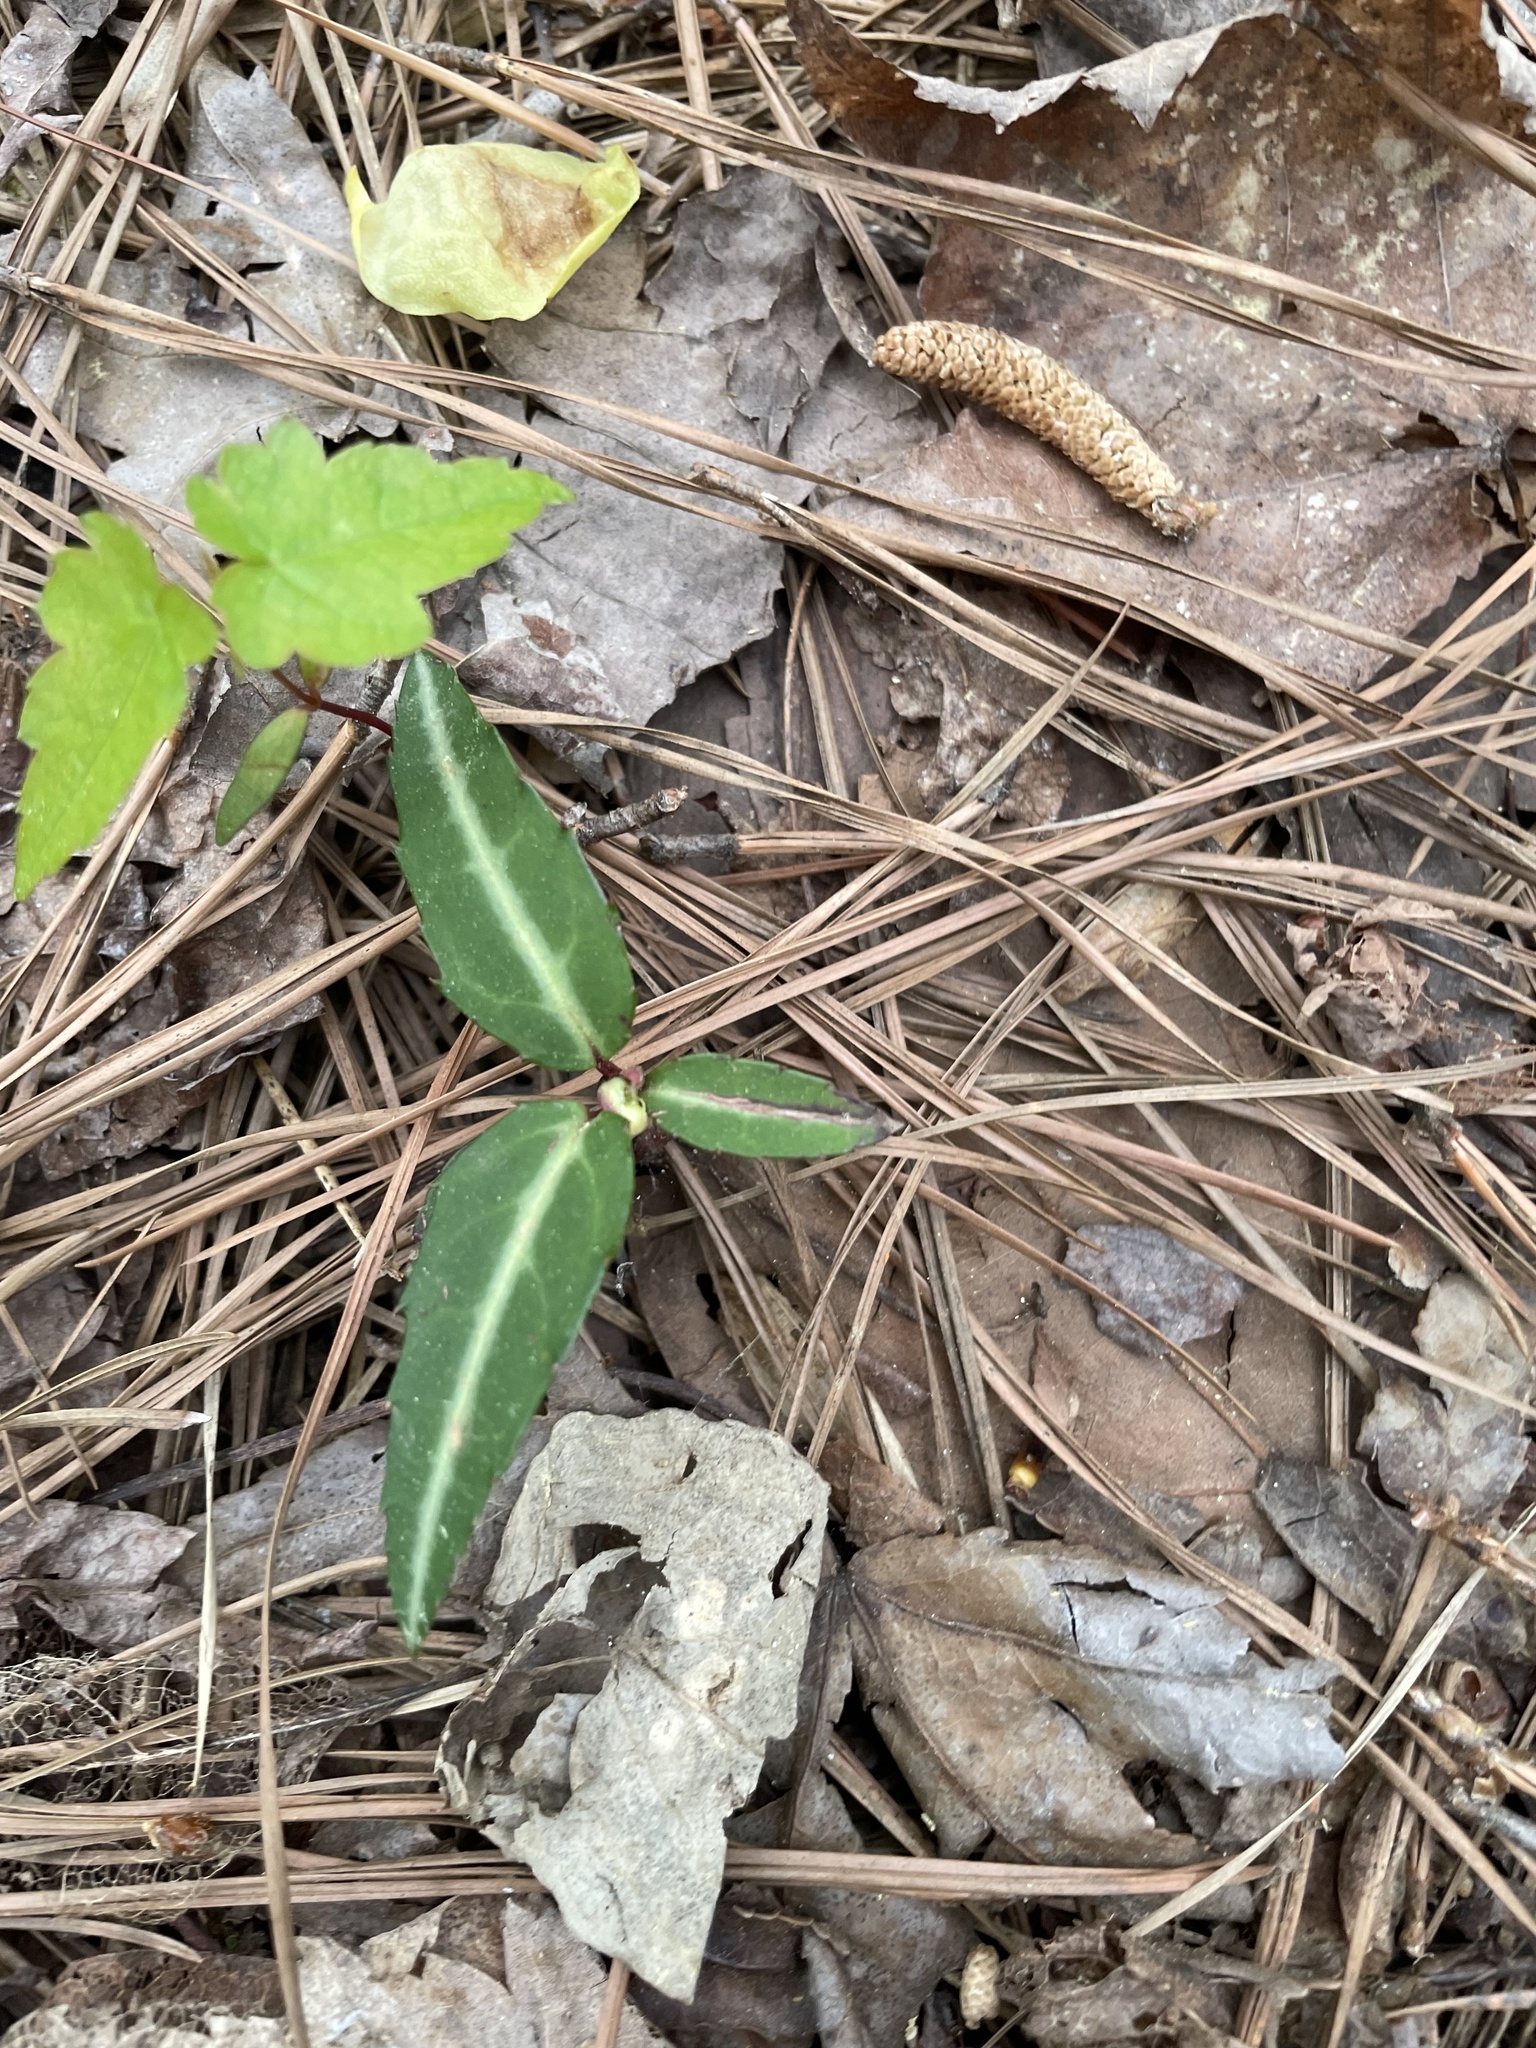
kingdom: Plantae
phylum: Tracheophyta
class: Magnoliopsida
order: Ericales
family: Ericaceae
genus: Chimaphila
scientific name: Chimaphila maculata
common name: Spotted pipsissewa
